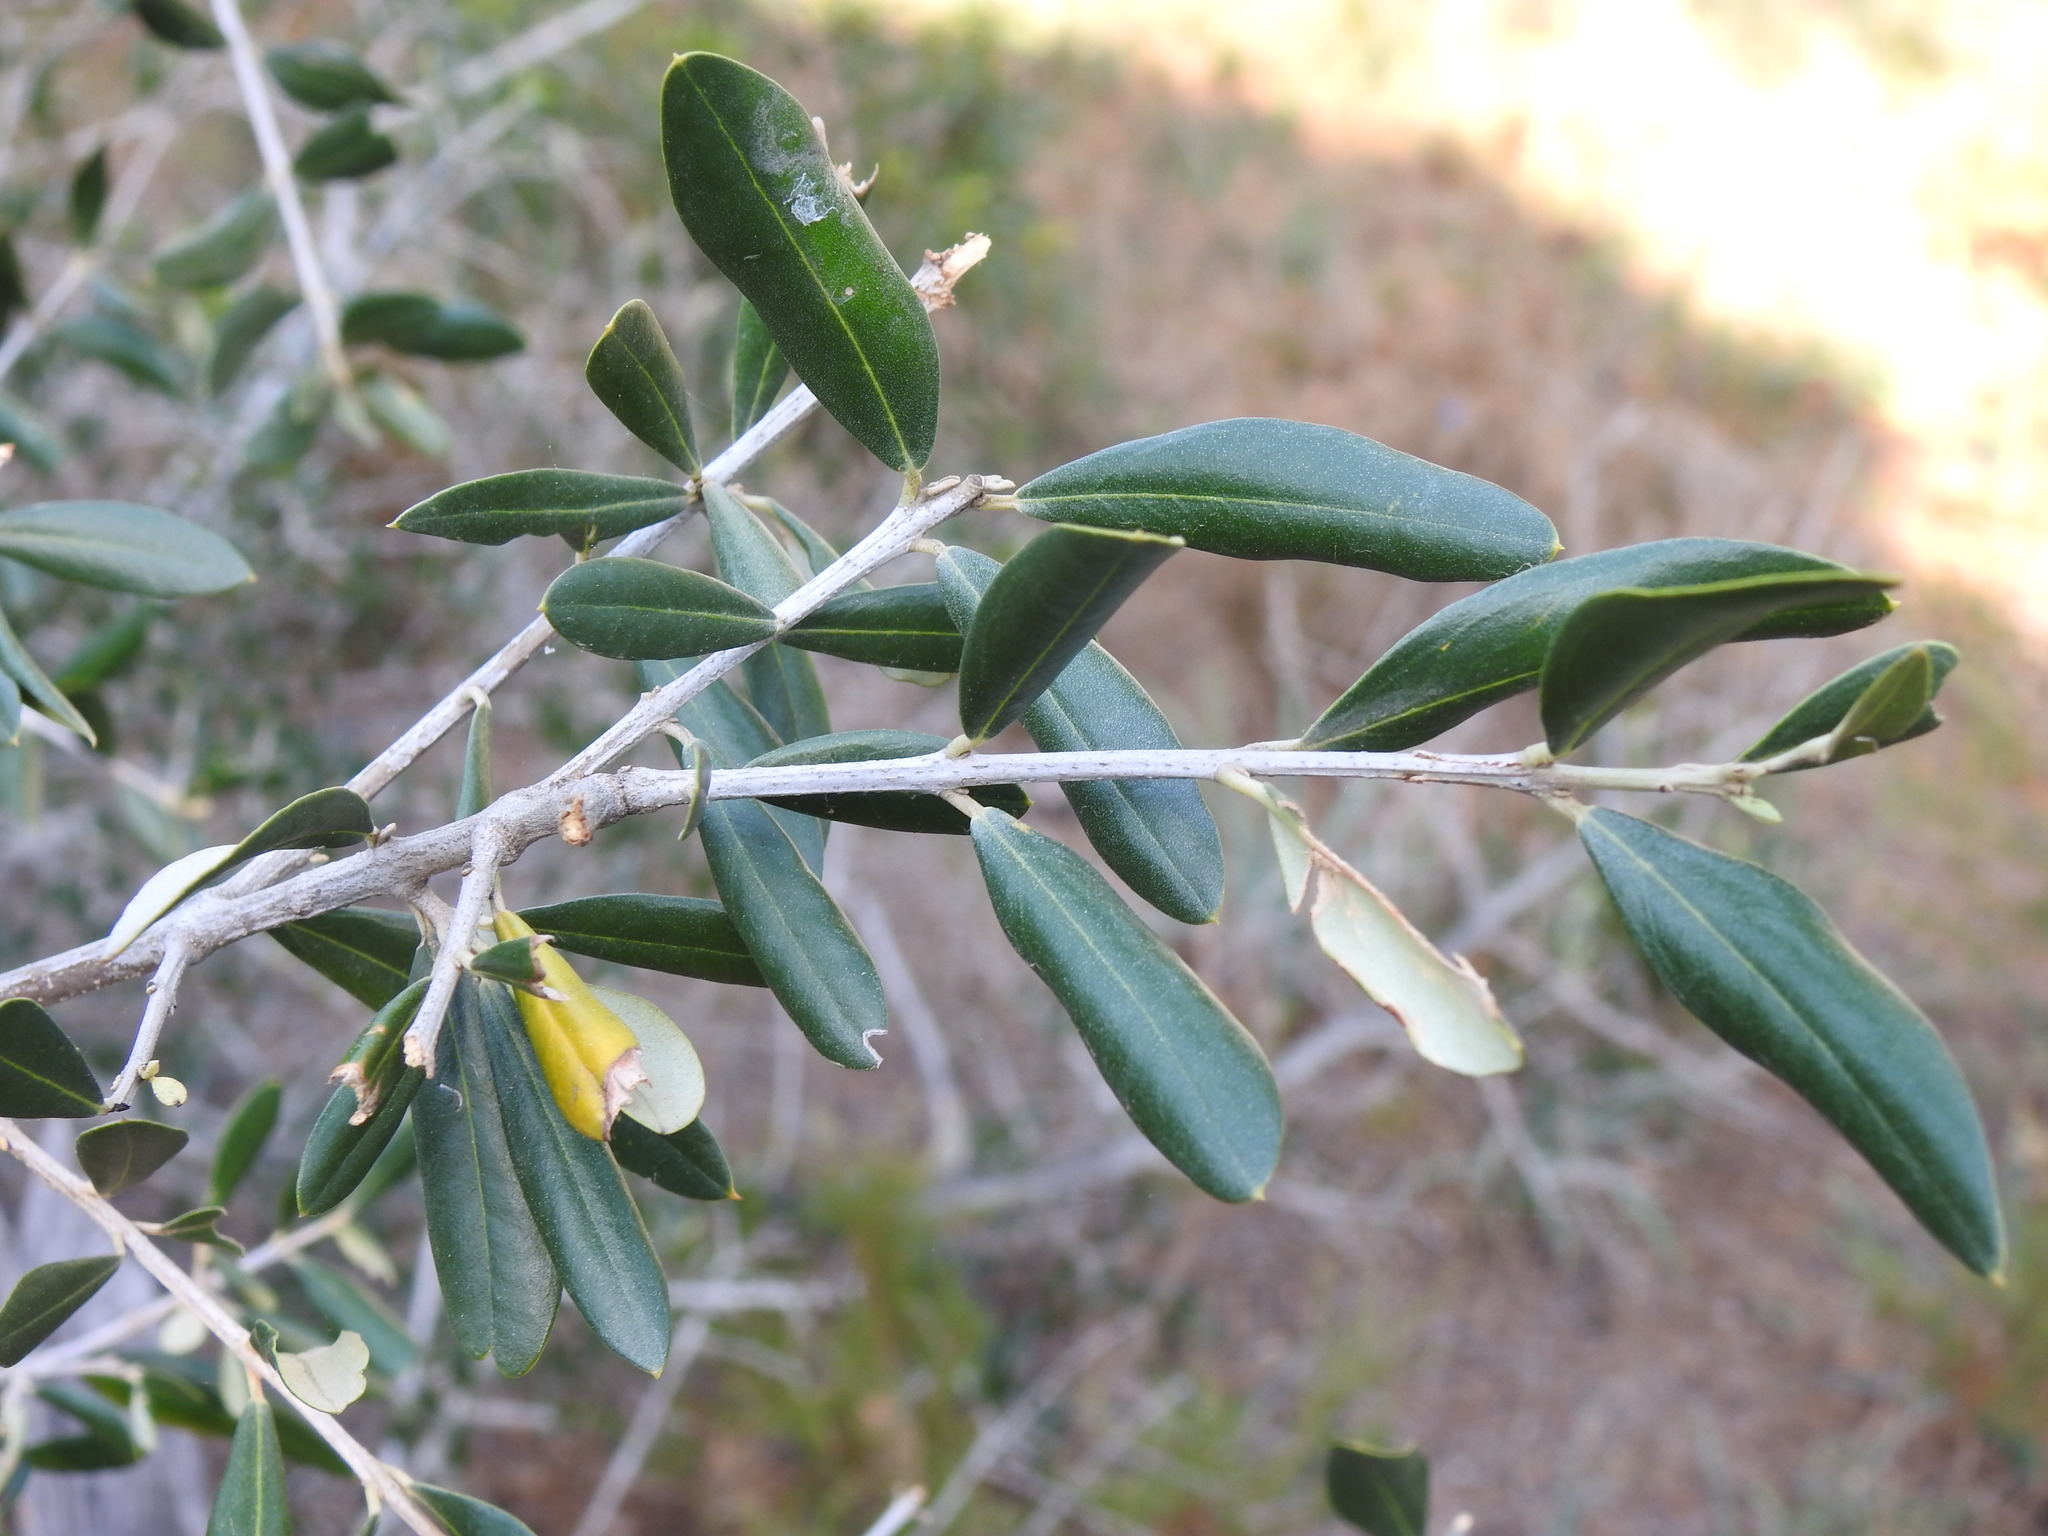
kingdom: Plantae
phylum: Tracheophyta
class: Magnoliopsida
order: Lamiales
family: Oleaceae
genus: Olea
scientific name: Olea europaea
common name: Olive
